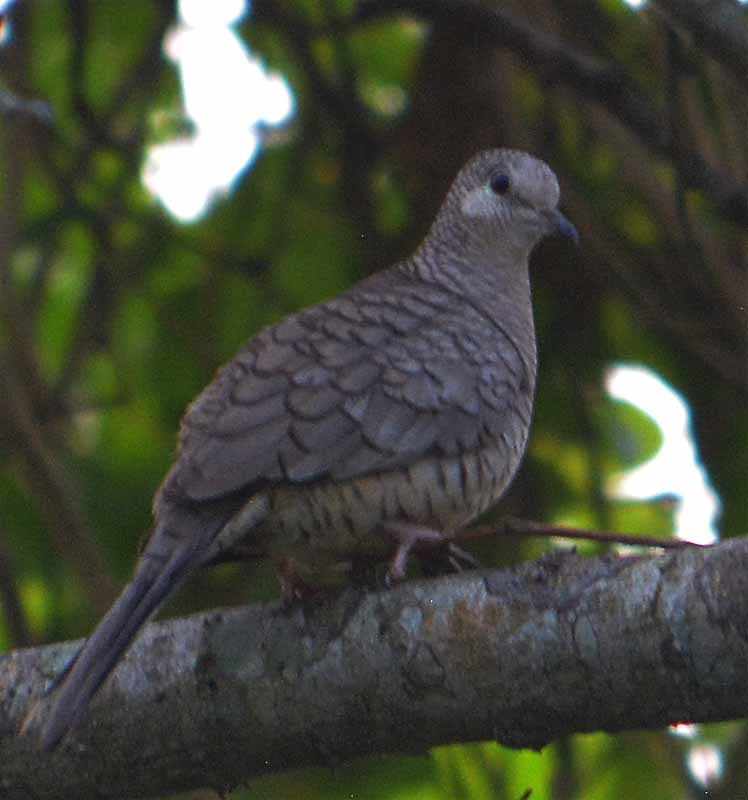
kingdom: Animalia
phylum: Chordata
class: Aves
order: Columbiformes
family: Columbidae
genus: Columbina
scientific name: Columbina inca
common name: Inca dove
